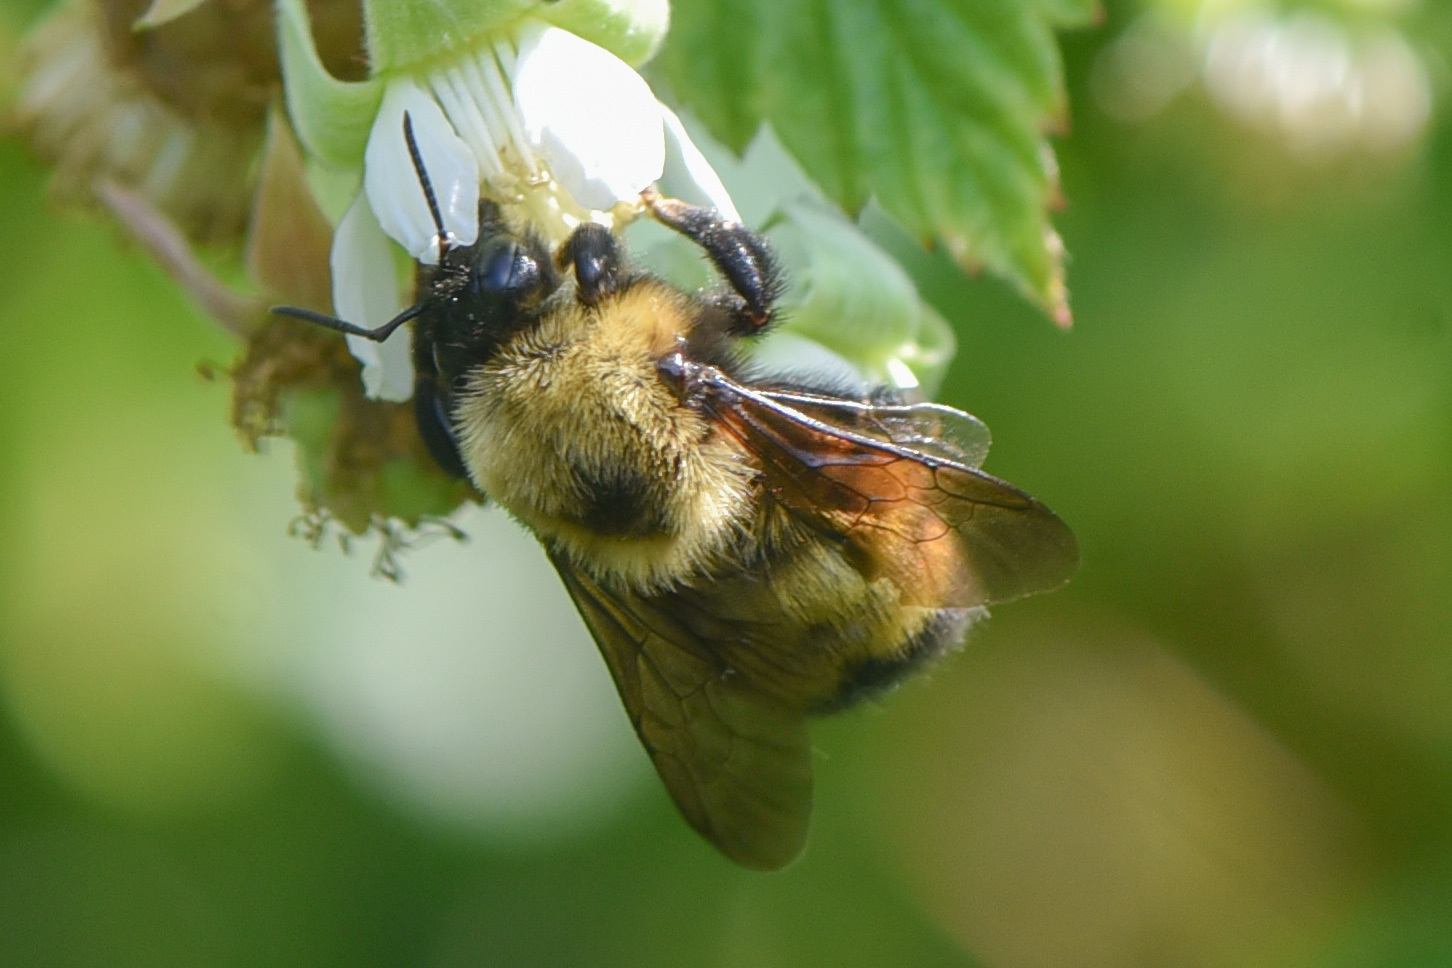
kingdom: Animalia
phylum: Arthropoda
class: Insecta
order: Hymenoptera
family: Apidae
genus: Bombus
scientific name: Bombus nevadensis
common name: Nevada bumble bee
